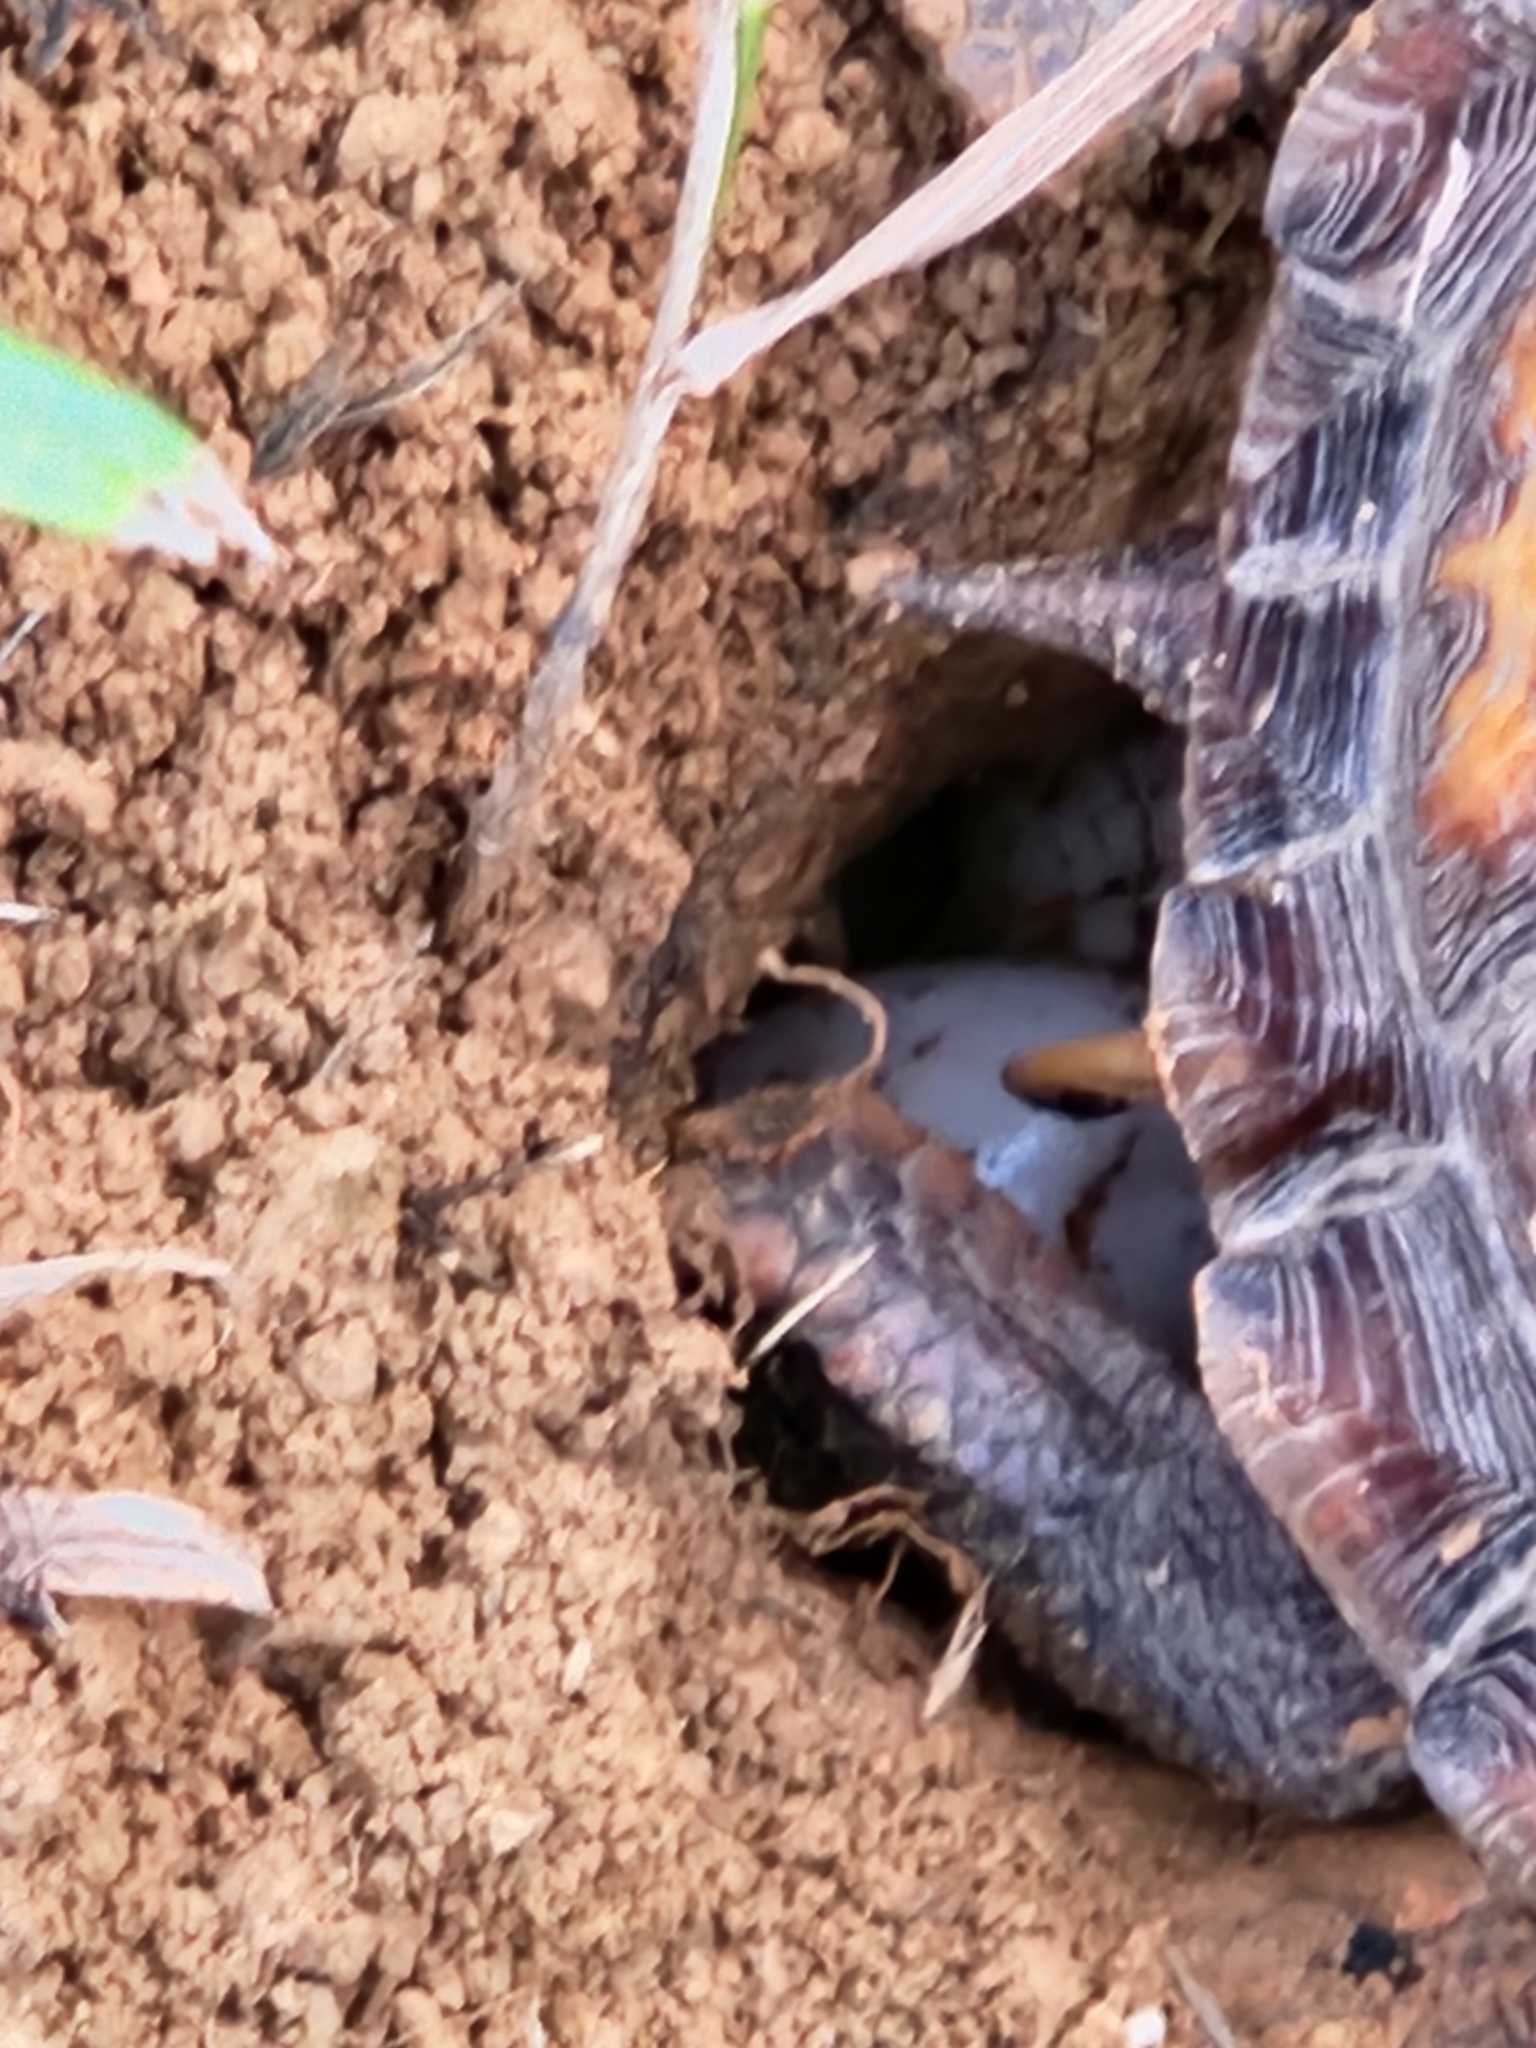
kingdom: Animalia
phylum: Chordata
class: Testudines
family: Emydidae
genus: Terrapene
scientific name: Terrapene carolina
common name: Common box turtle
